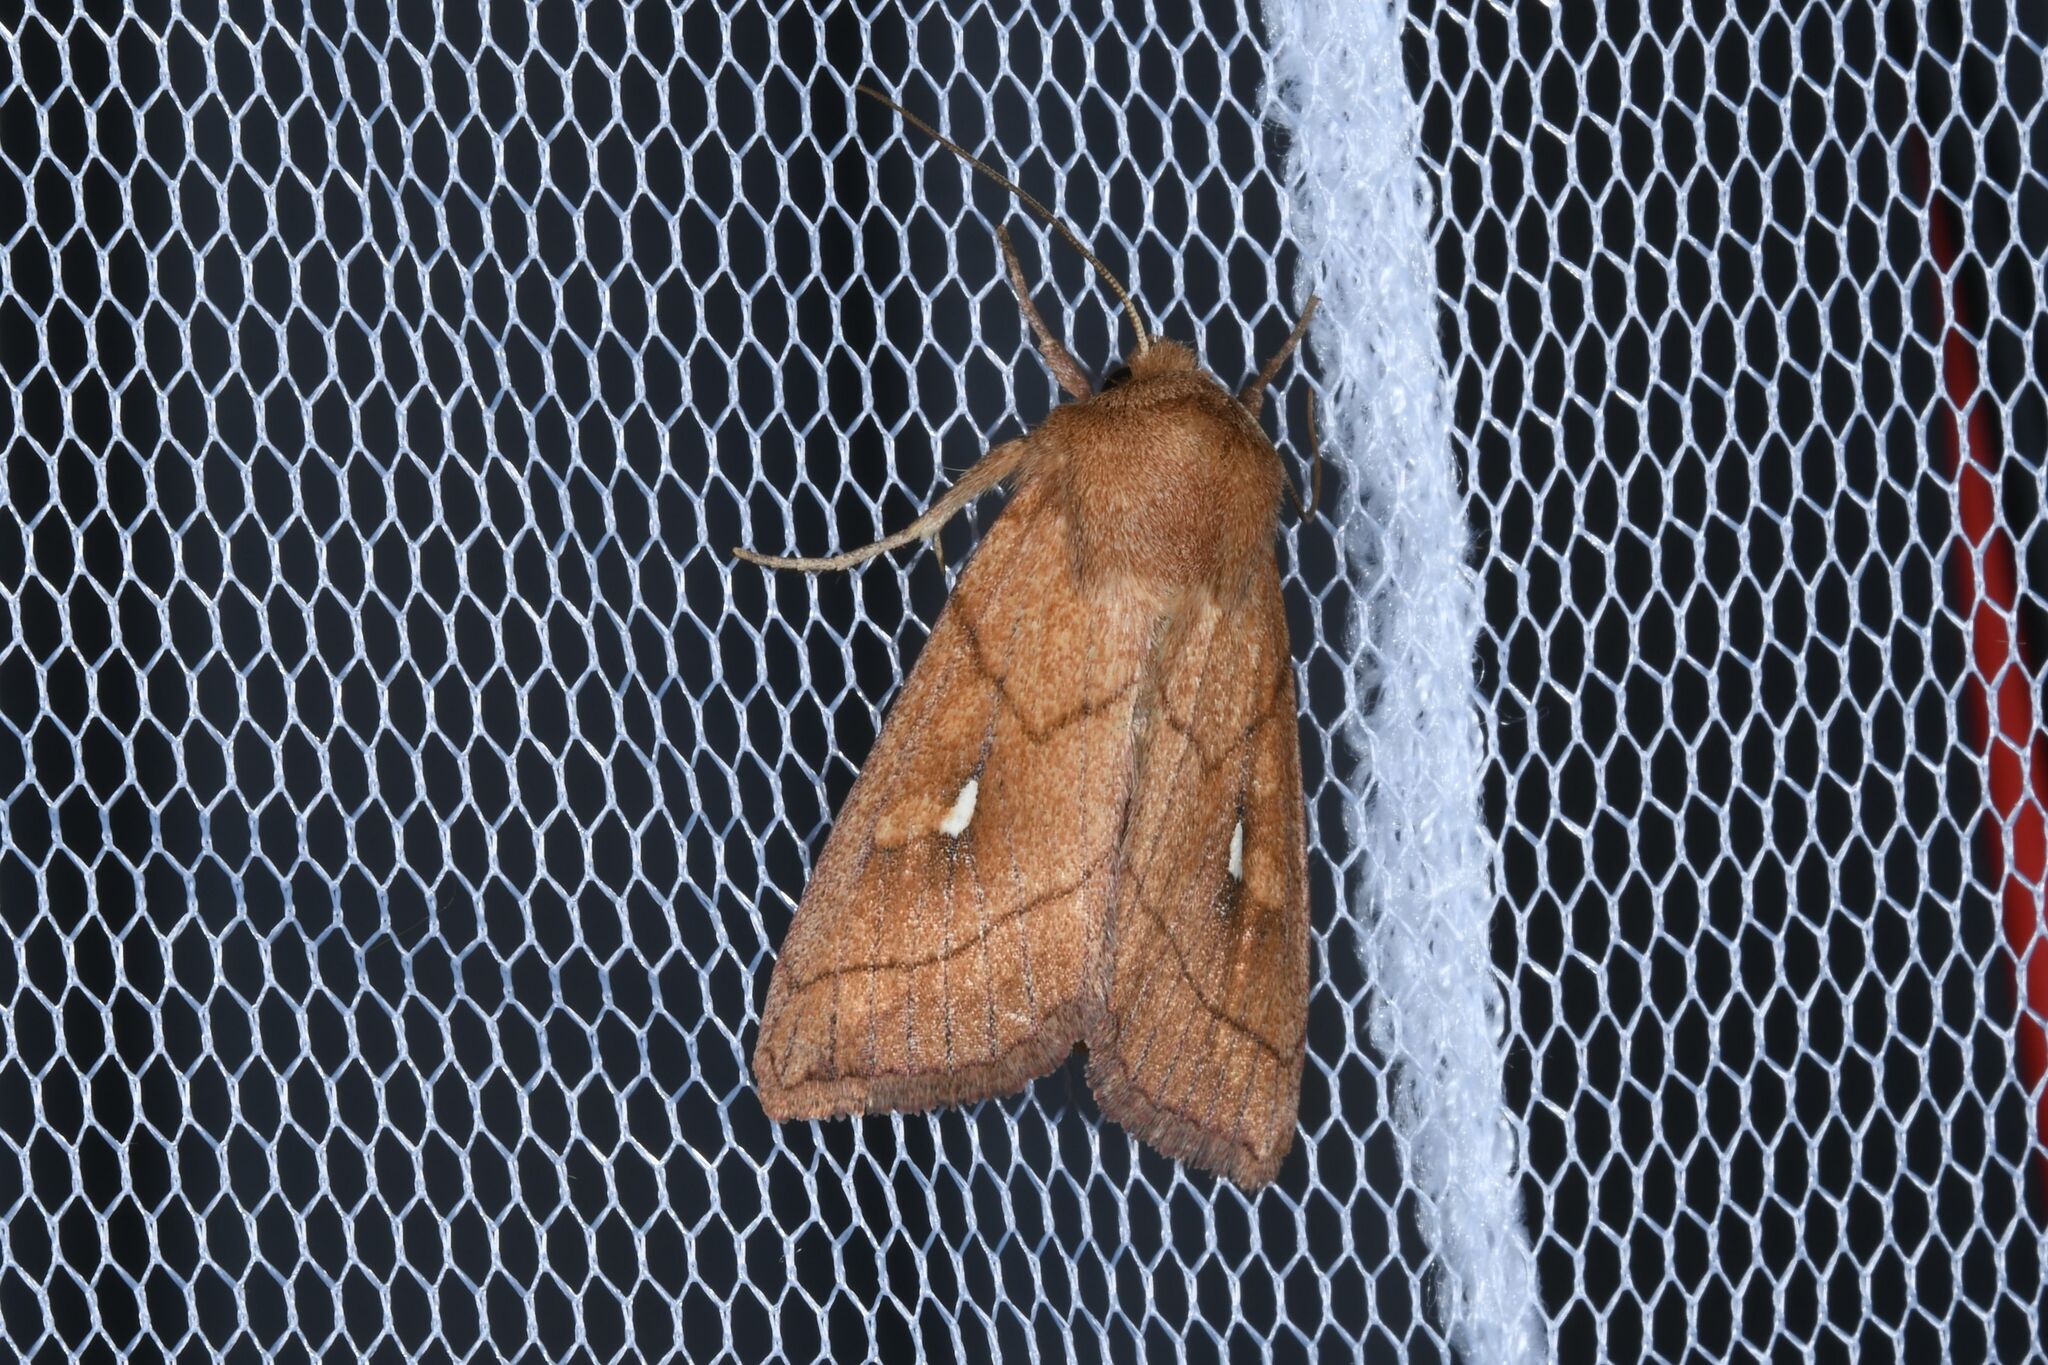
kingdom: Animalia
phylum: Arthropoda
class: Insecta
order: Lepidoptera
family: Noctuidae
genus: Mythimna
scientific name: Mythimna conigera
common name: Brown-line bright-eye
